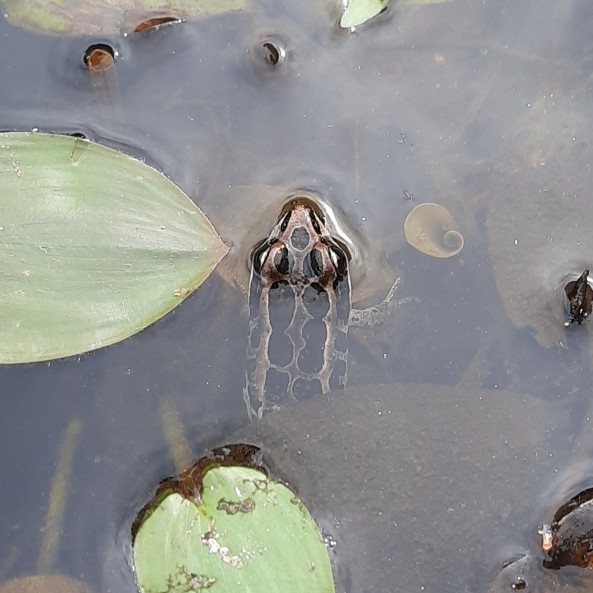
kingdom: Animalia
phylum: Chordata
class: Amphibia
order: Anura
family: Ranidae
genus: Lithobates
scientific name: Lithobates palustris
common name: Pickerel frog
